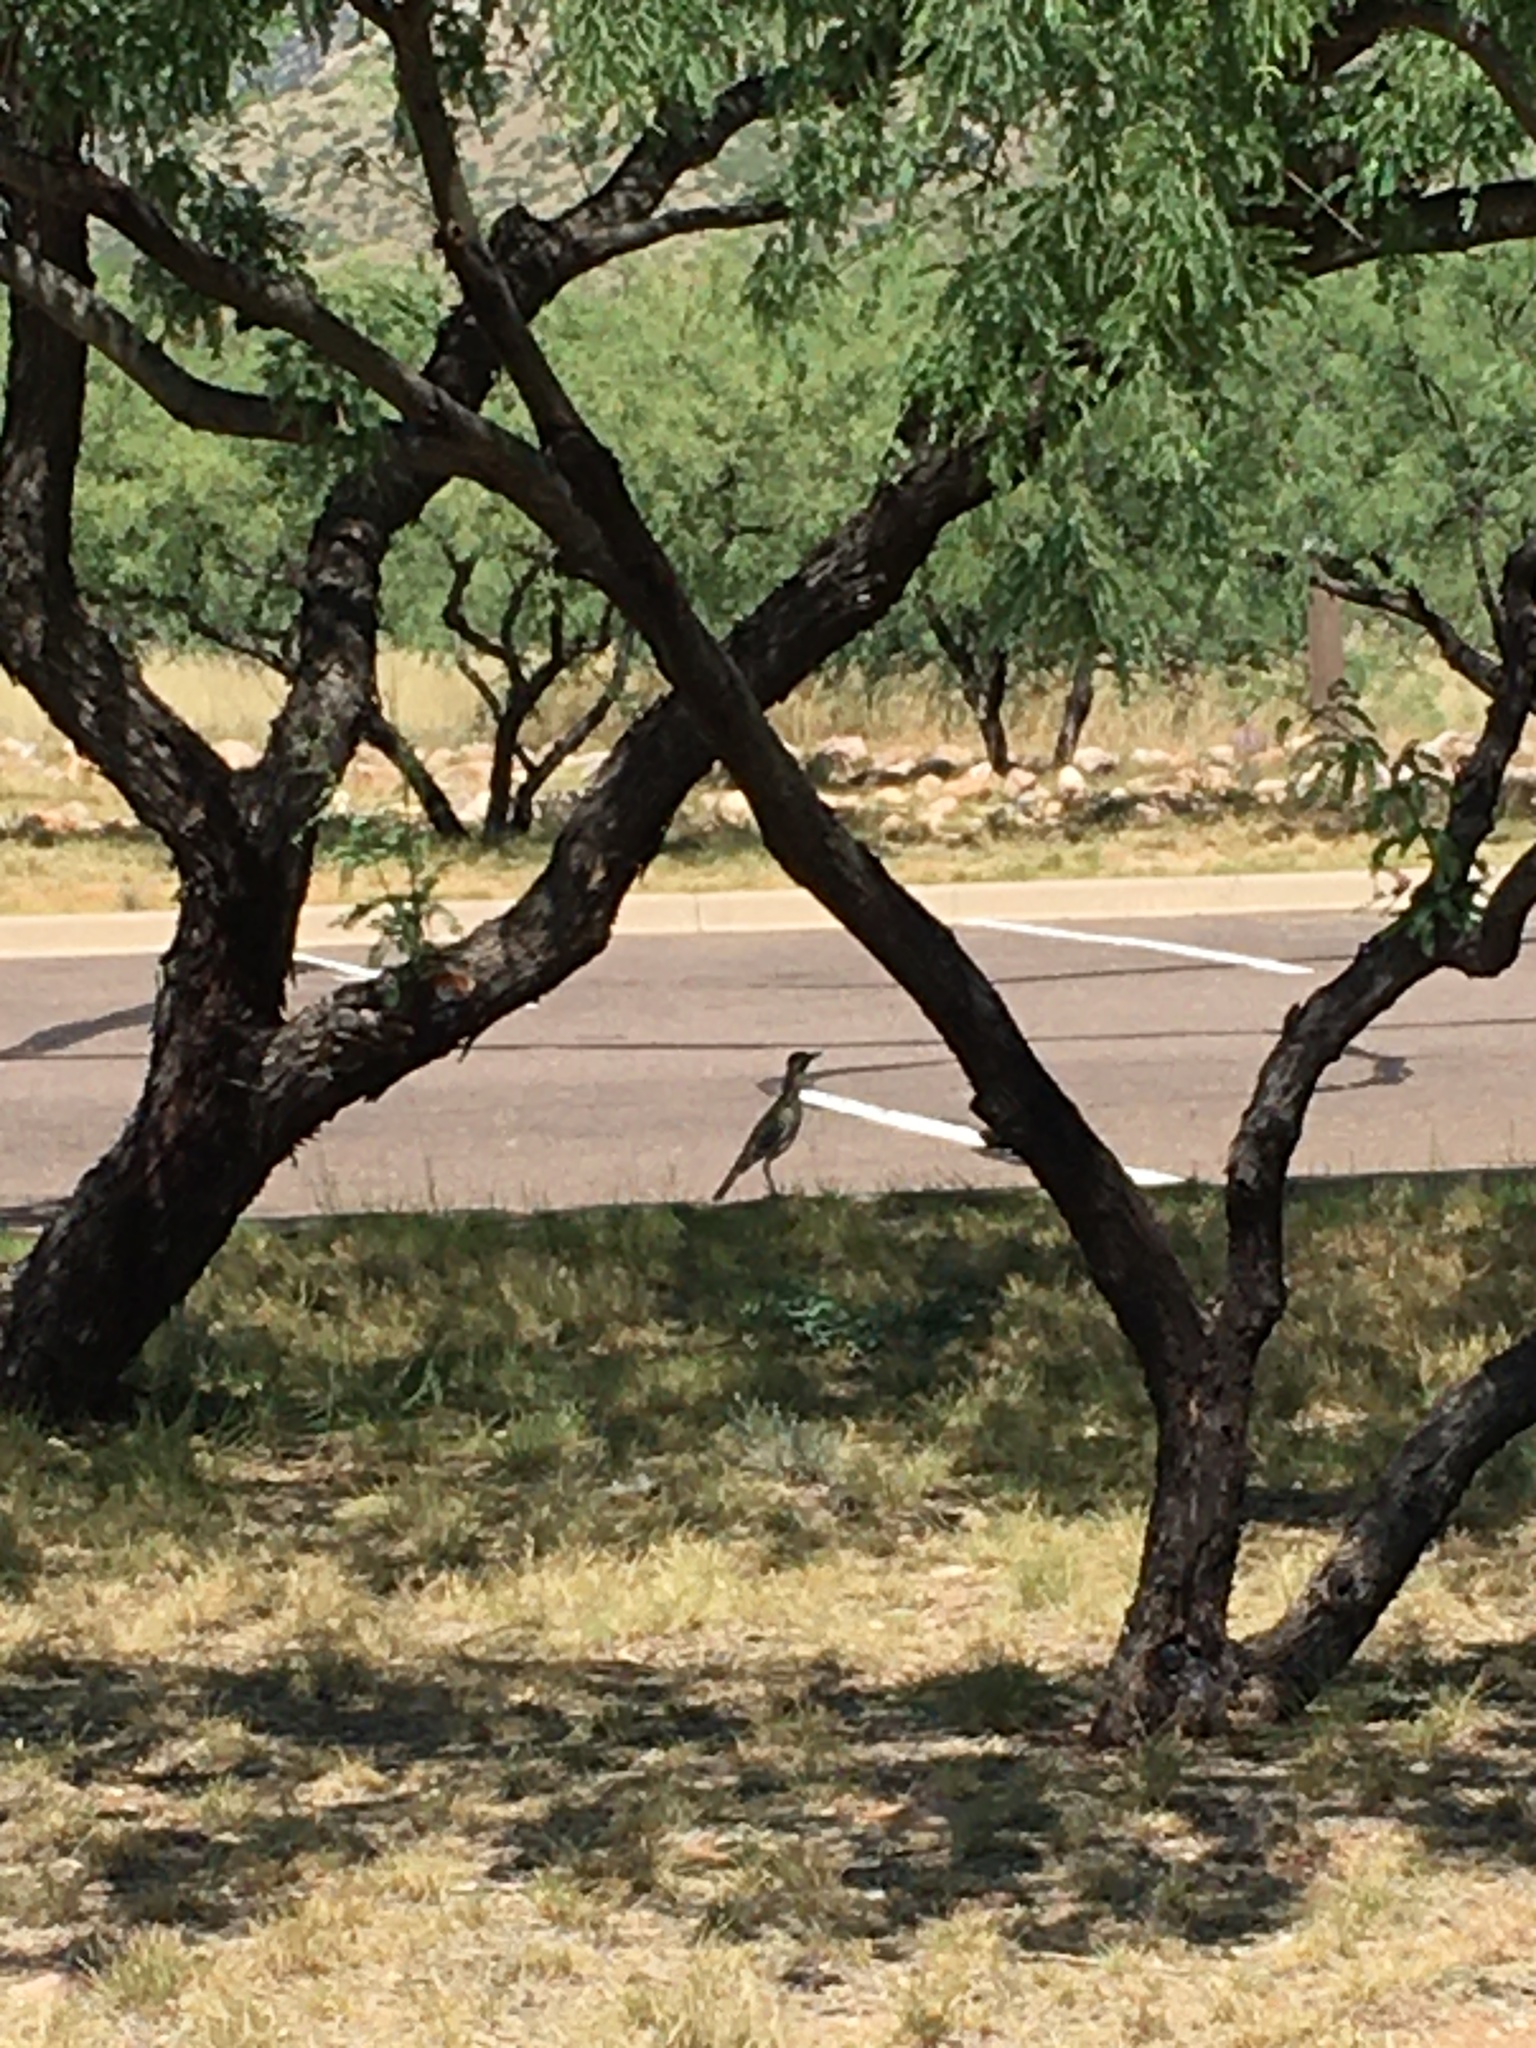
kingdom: Animalia
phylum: Chordata
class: Aves
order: Cuculiformes
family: Cuculidae
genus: Geococcyx
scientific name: Geococcyx californianus
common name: Greater roadrunner
